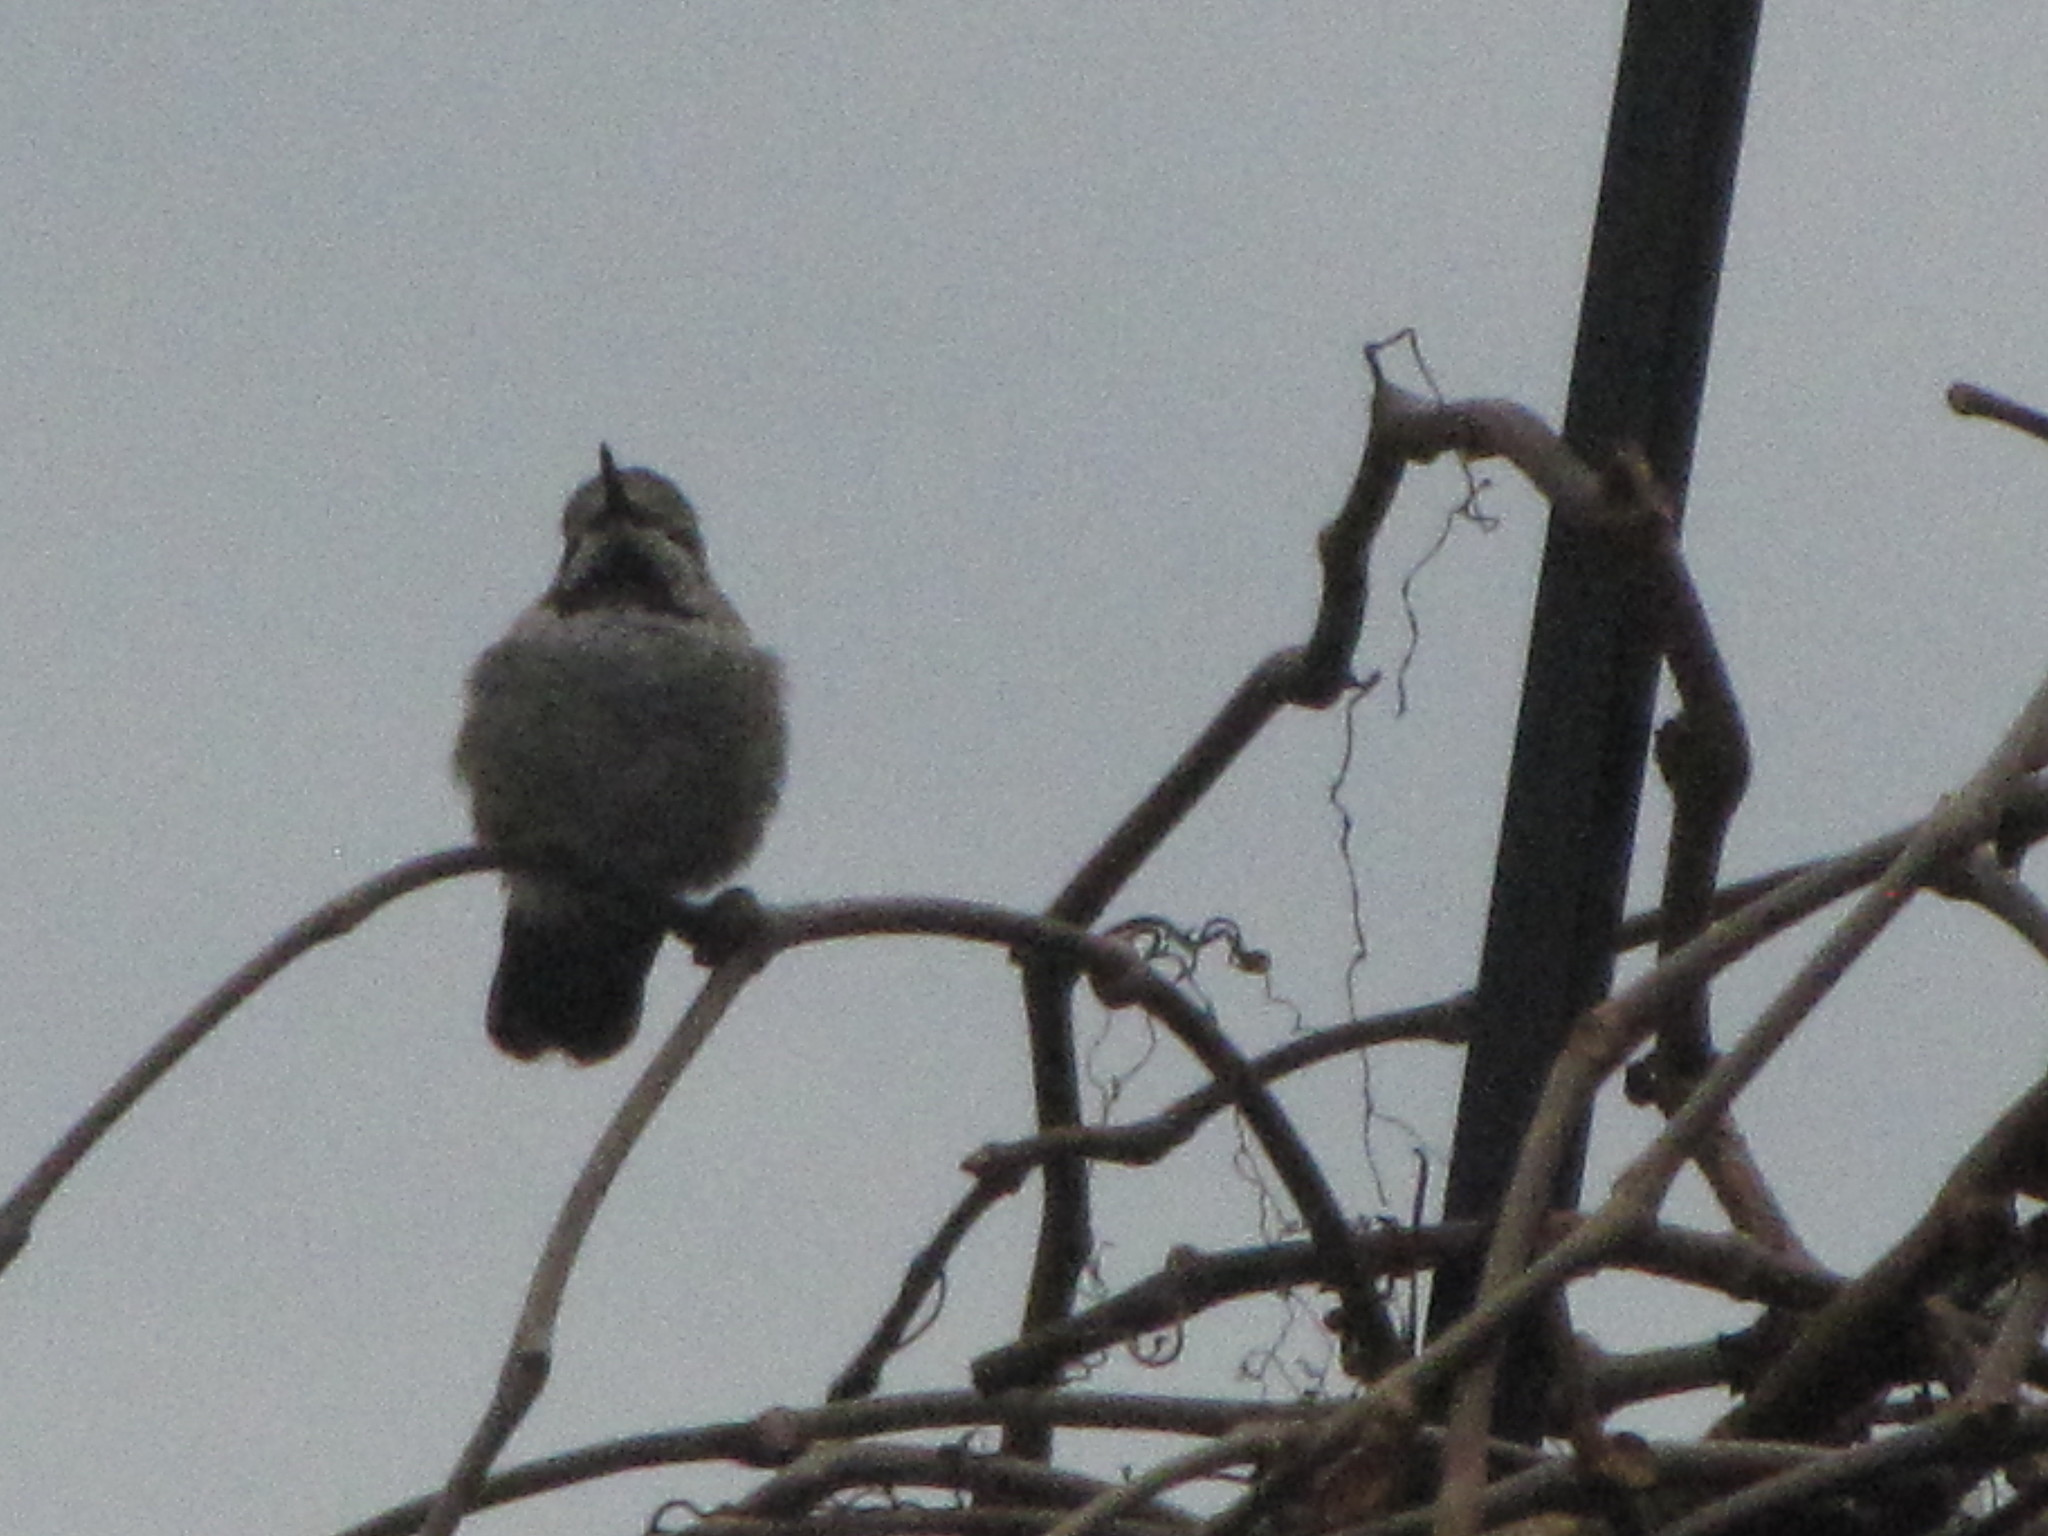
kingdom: Animalia
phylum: Chordata
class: Aves
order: Apodiformes
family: Trochilidae
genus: Calypte
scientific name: Calypte anna
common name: Anna's hummingbird
